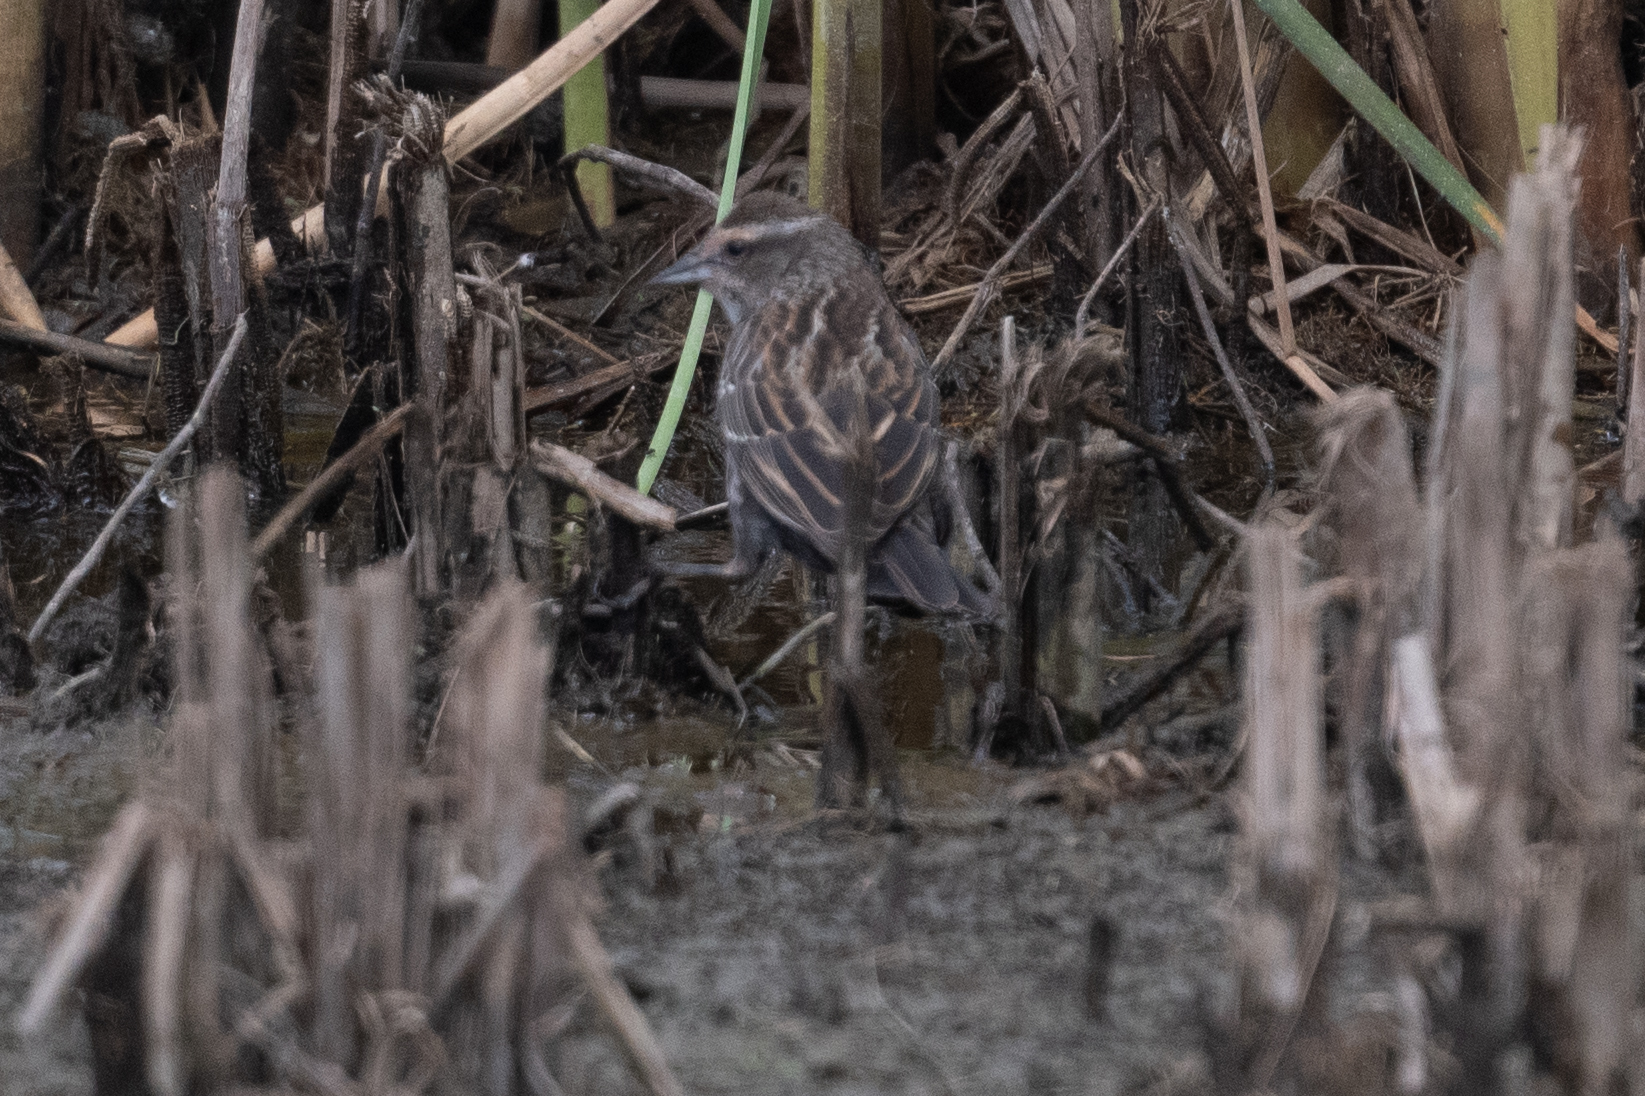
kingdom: Animalia
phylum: Chordata
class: Aves
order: Passeriformes
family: Icteridae
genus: Agelaius
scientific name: Agelaius phoeniceus
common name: Red-winged blackbird
